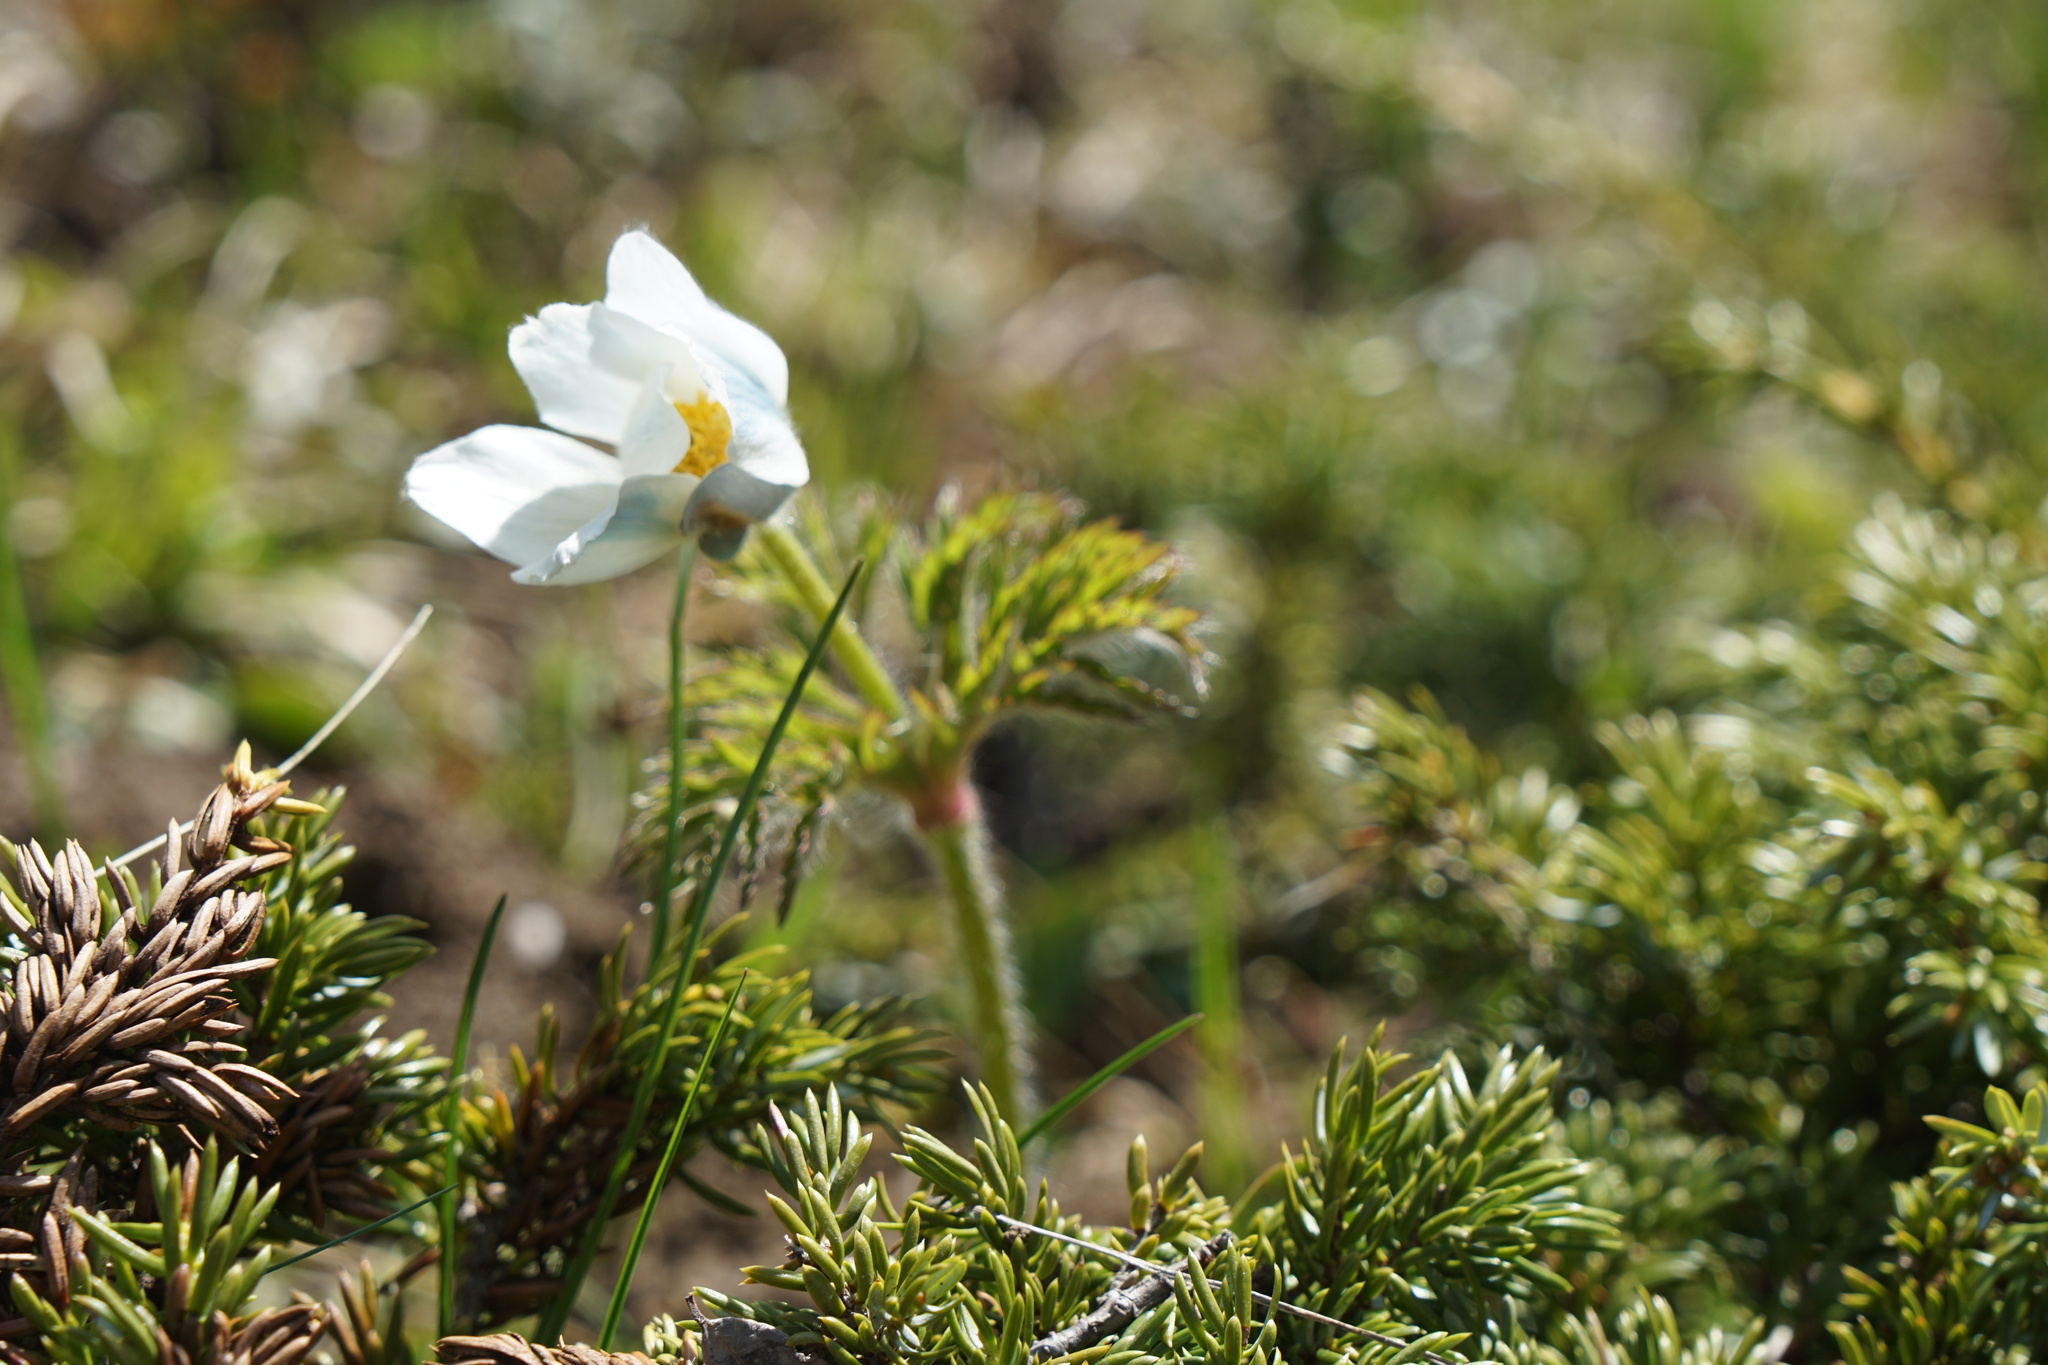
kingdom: Plantae
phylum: Tracheophyta
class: Magnoliopsida
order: Ranunculales
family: Ranunculaceae
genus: Pulsatilla
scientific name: Pulsatilla alpina
